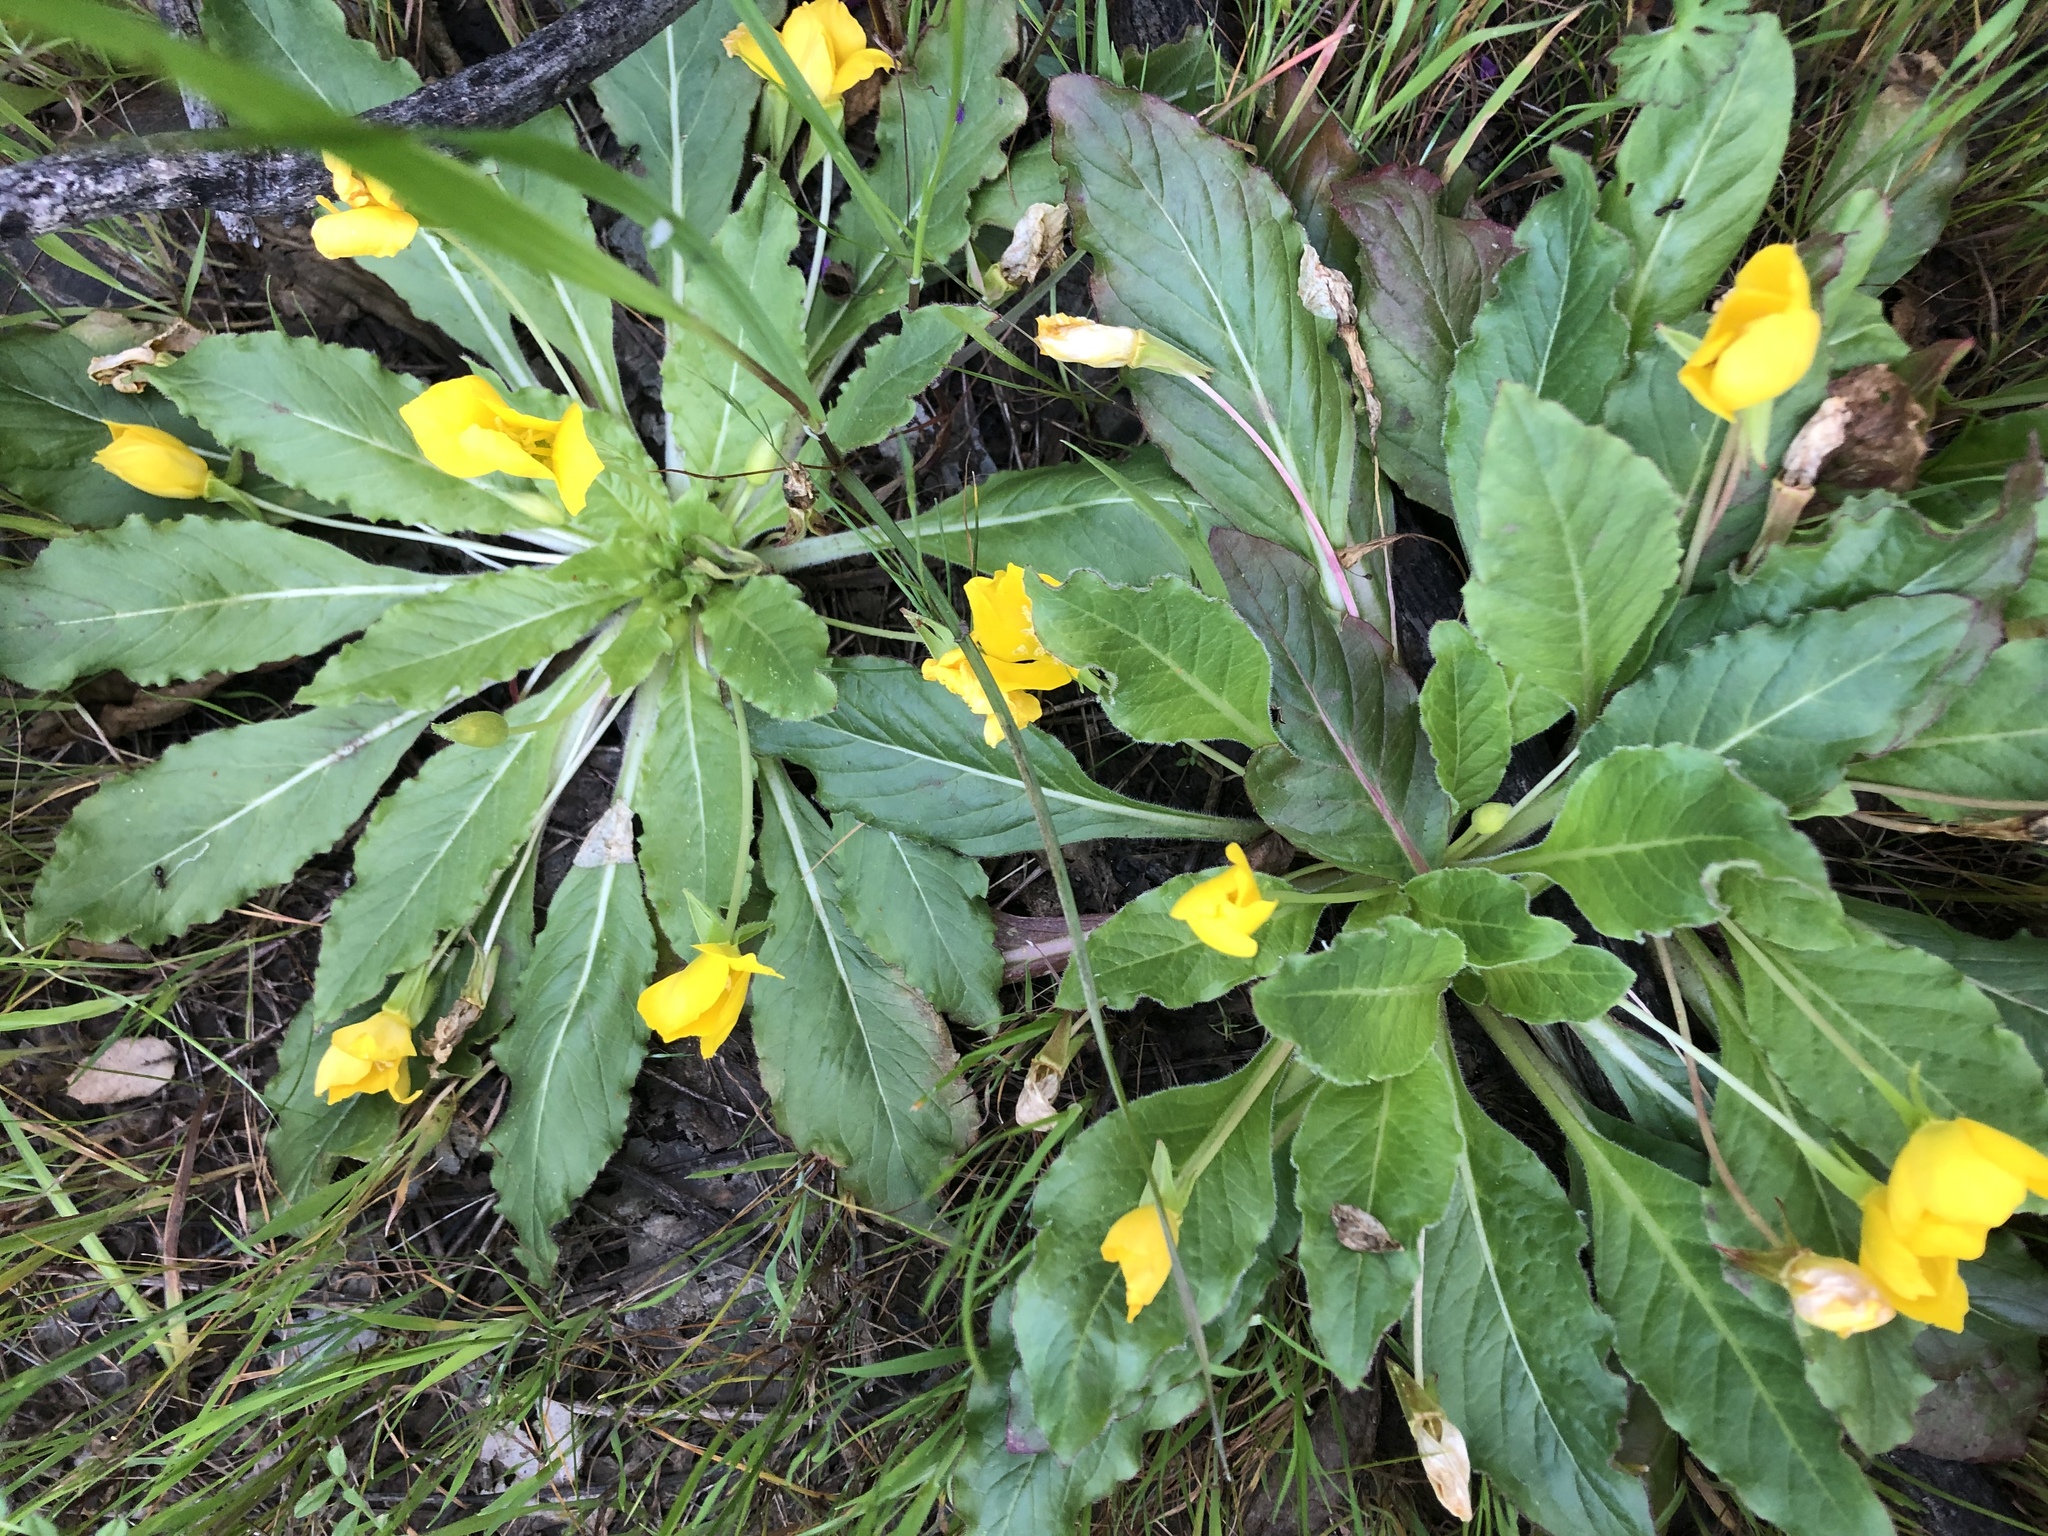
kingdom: Plantae
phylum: Tracheophyta
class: Magnoliopsida
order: Myrtales
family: Onagraceae
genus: Taraxia
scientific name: Taraxia ovata
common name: Goldeneggs
